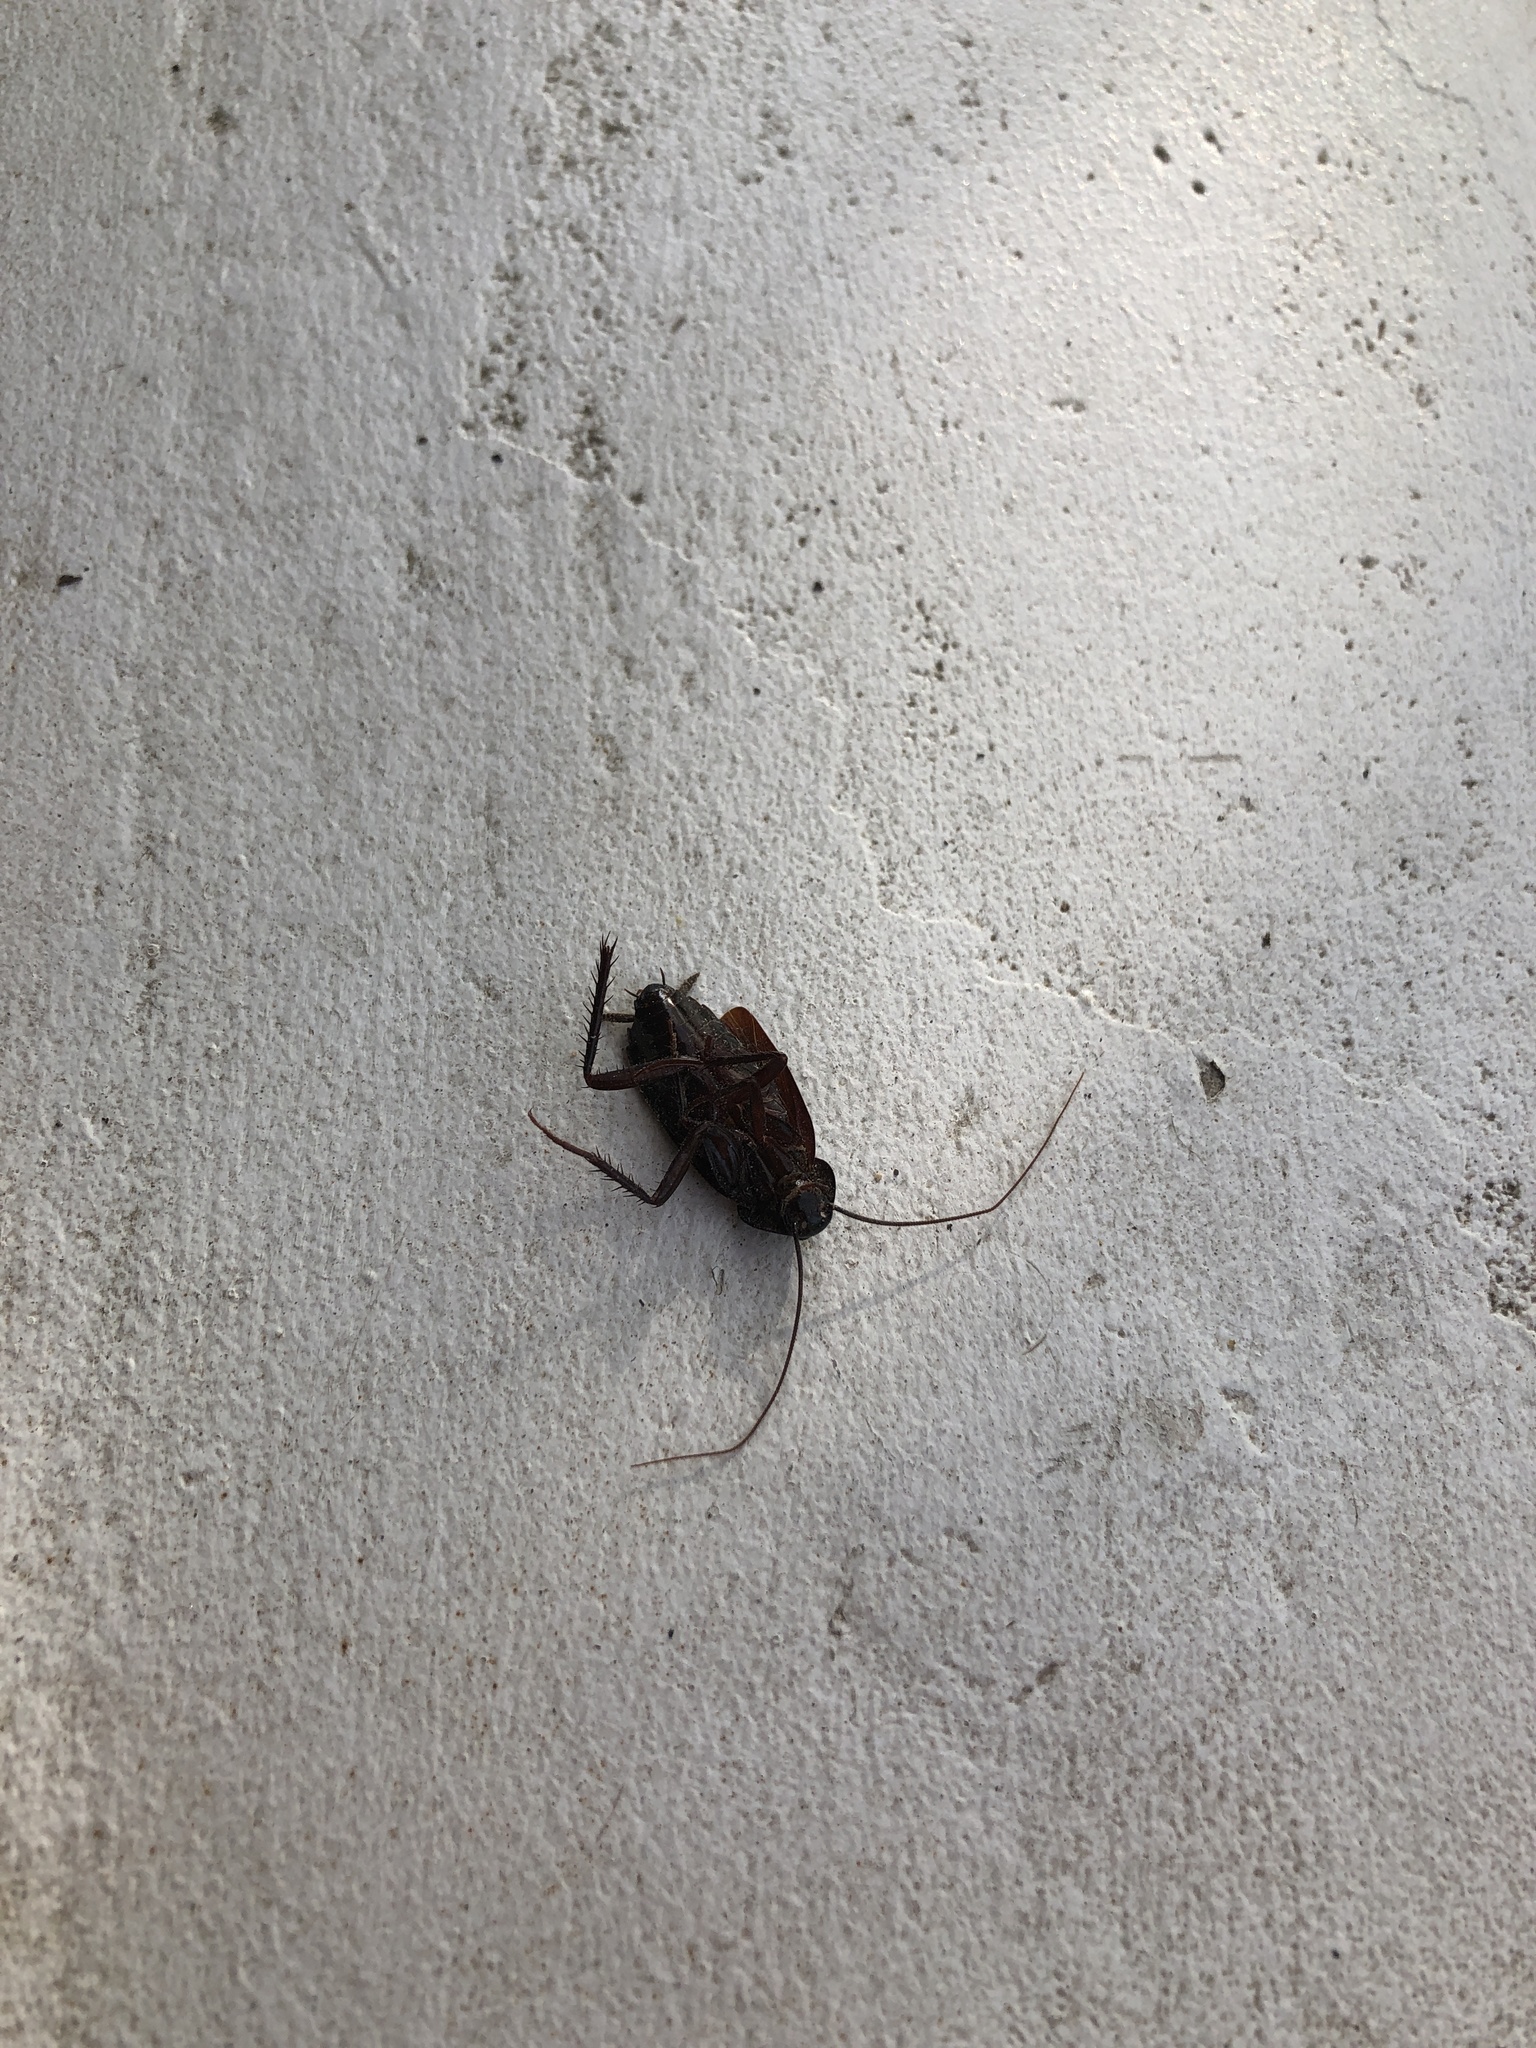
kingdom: Animalia
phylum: Arthropoda
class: Insecta
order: Blattodea
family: Blattidae
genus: Blatta
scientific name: Blatta orientalis
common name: Oriental cockroach
